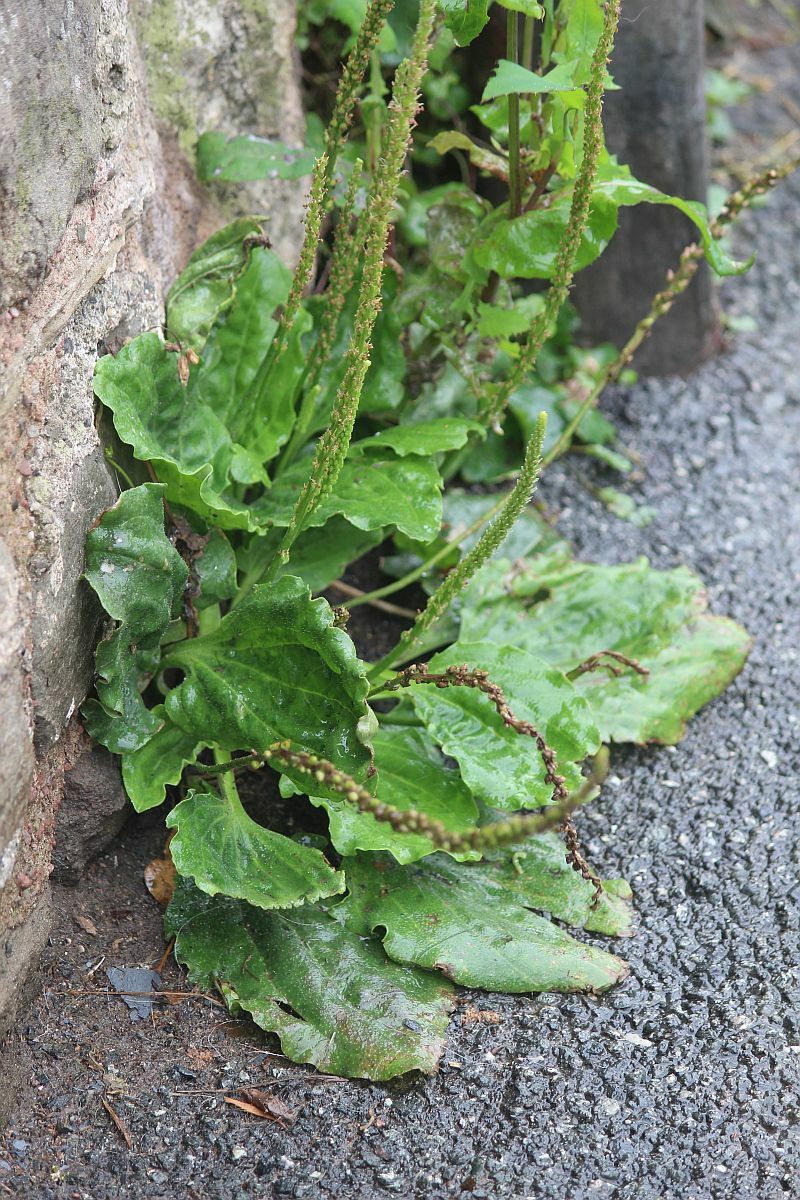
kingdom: Plantae
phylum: Tracheophyta
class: Magnoliopsida
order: Lamiales
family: Plantaginaceae
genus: Plantago
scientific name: Plantago major
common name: Common plantain
